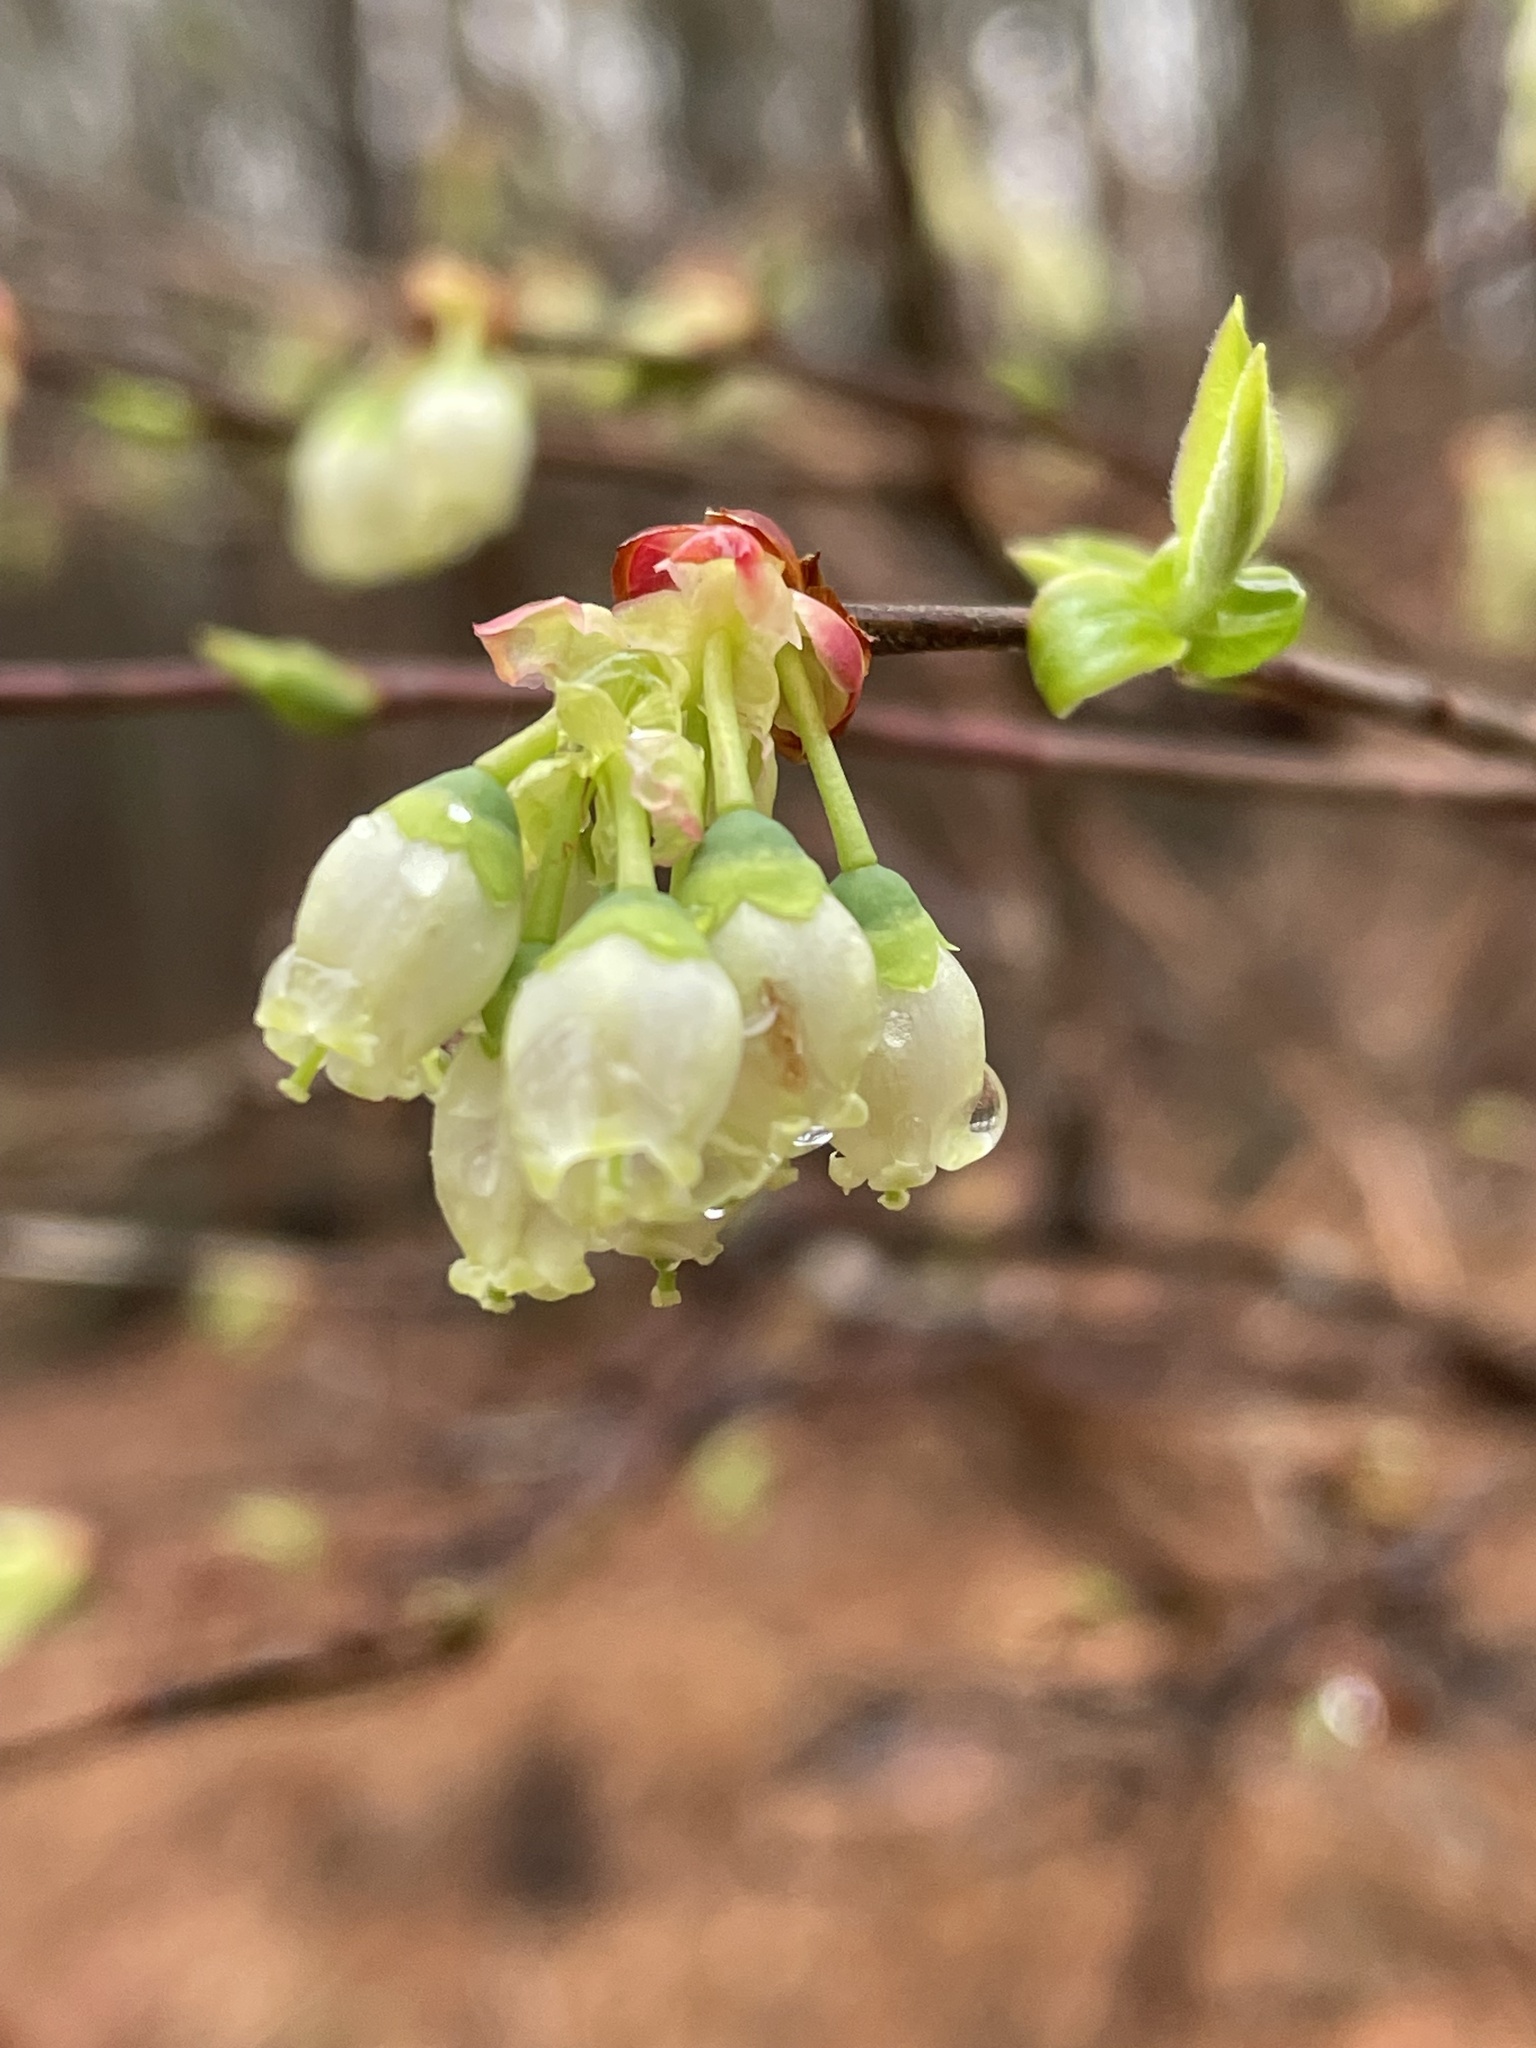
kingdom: Plantae
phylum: Tracheophyta
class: Magnoliopsida
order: Ericales
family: Ericaceae
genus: Vaccinium
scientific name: Vaccinium corymbosum
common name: Blueberry
